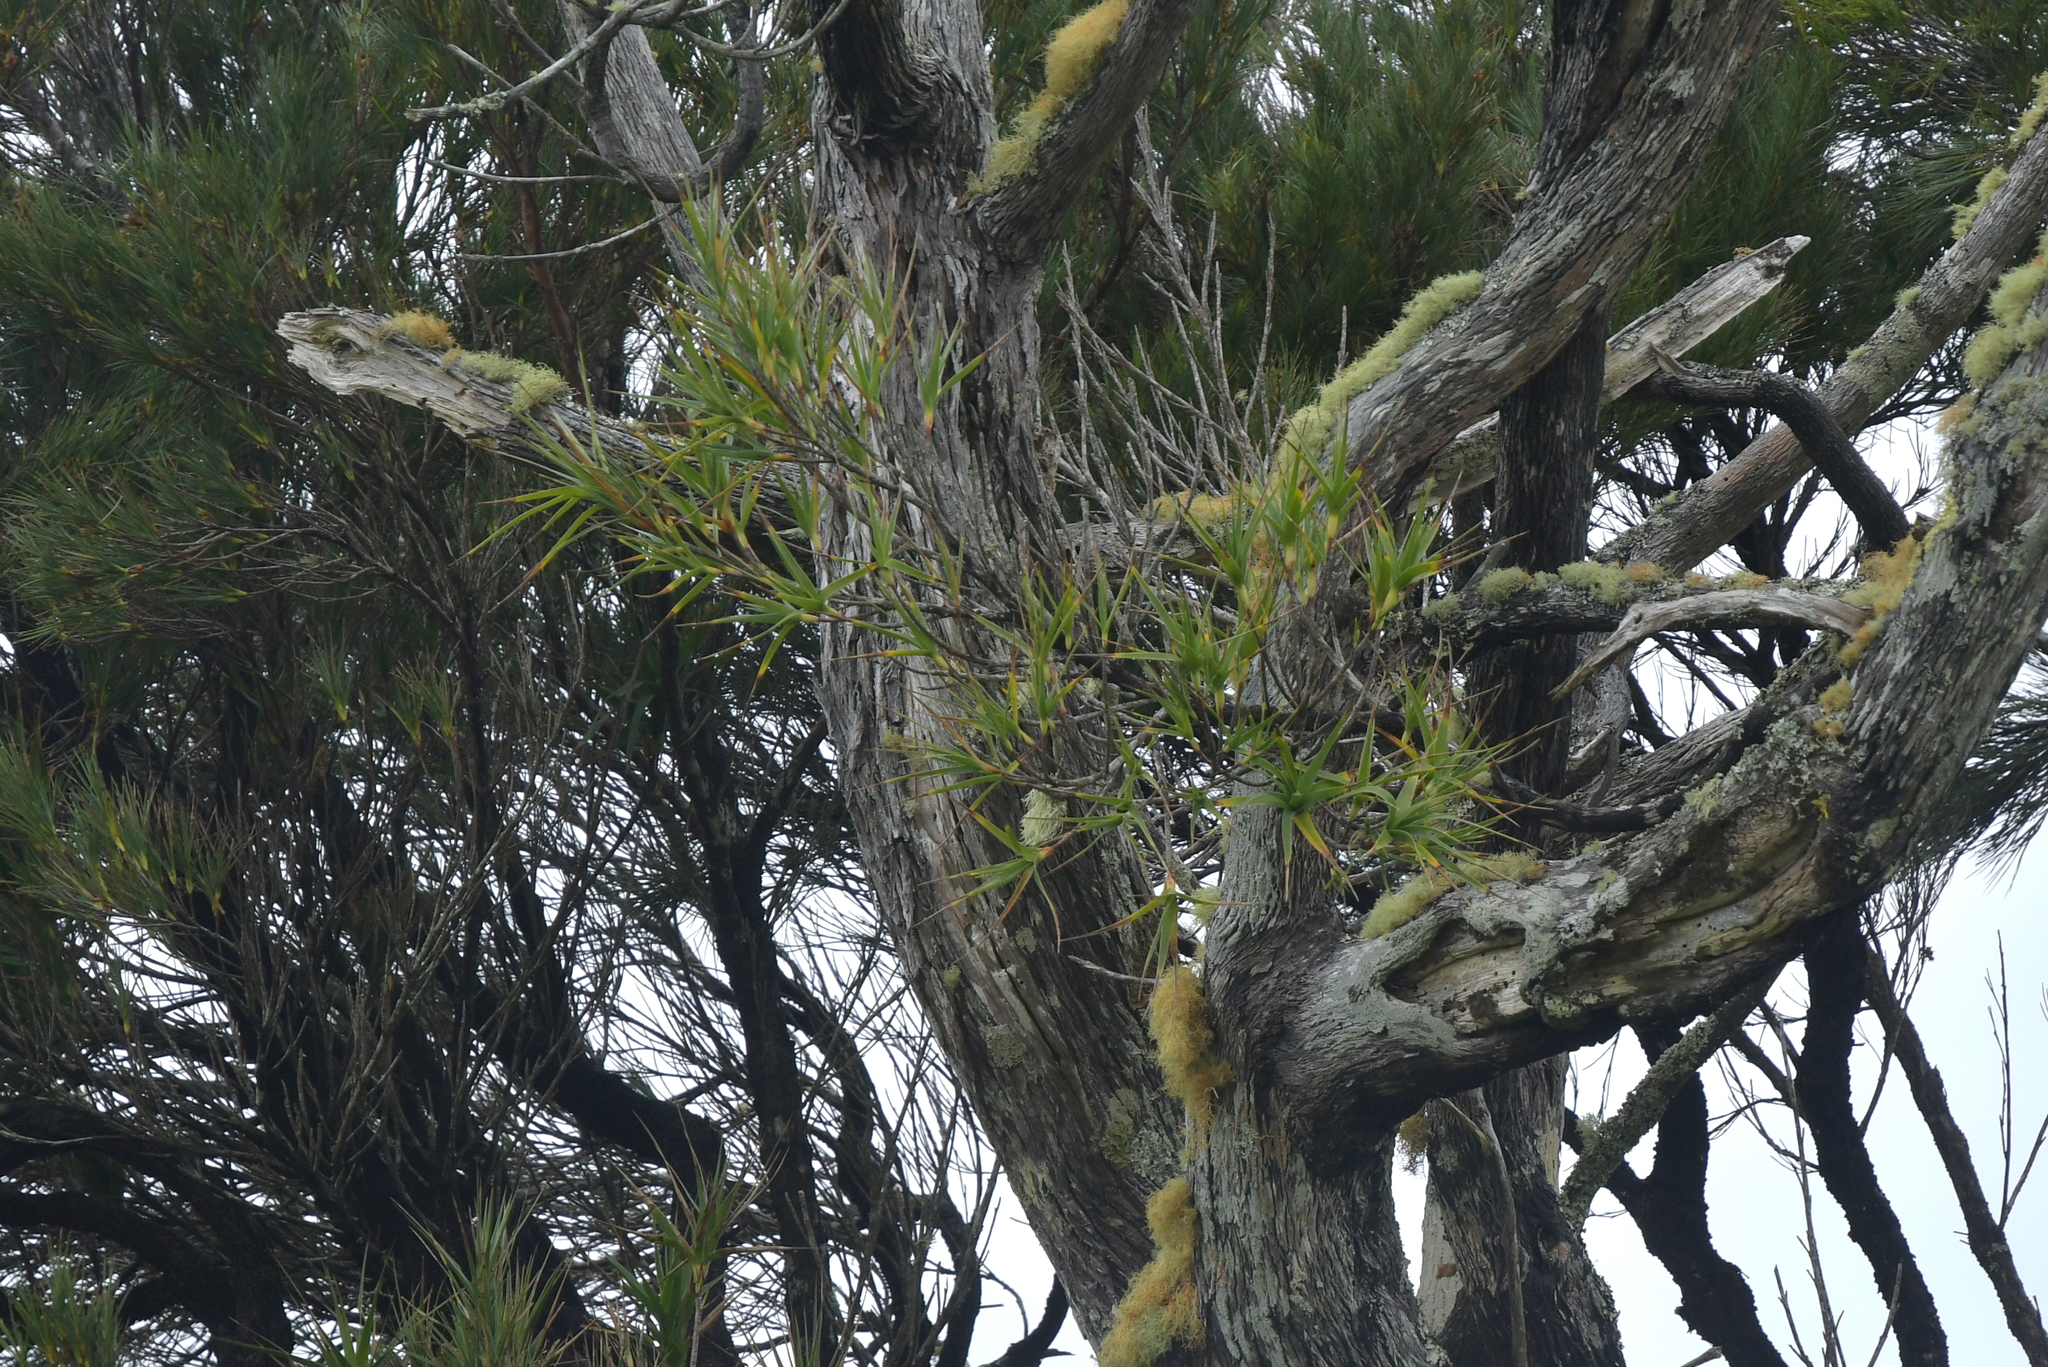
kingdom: Plantae
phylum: Tracheophyta
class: Magnoliopsida
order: Ericales
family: Ericaceae
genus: Dracophyllum
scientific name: Dracophyllum arboreum
